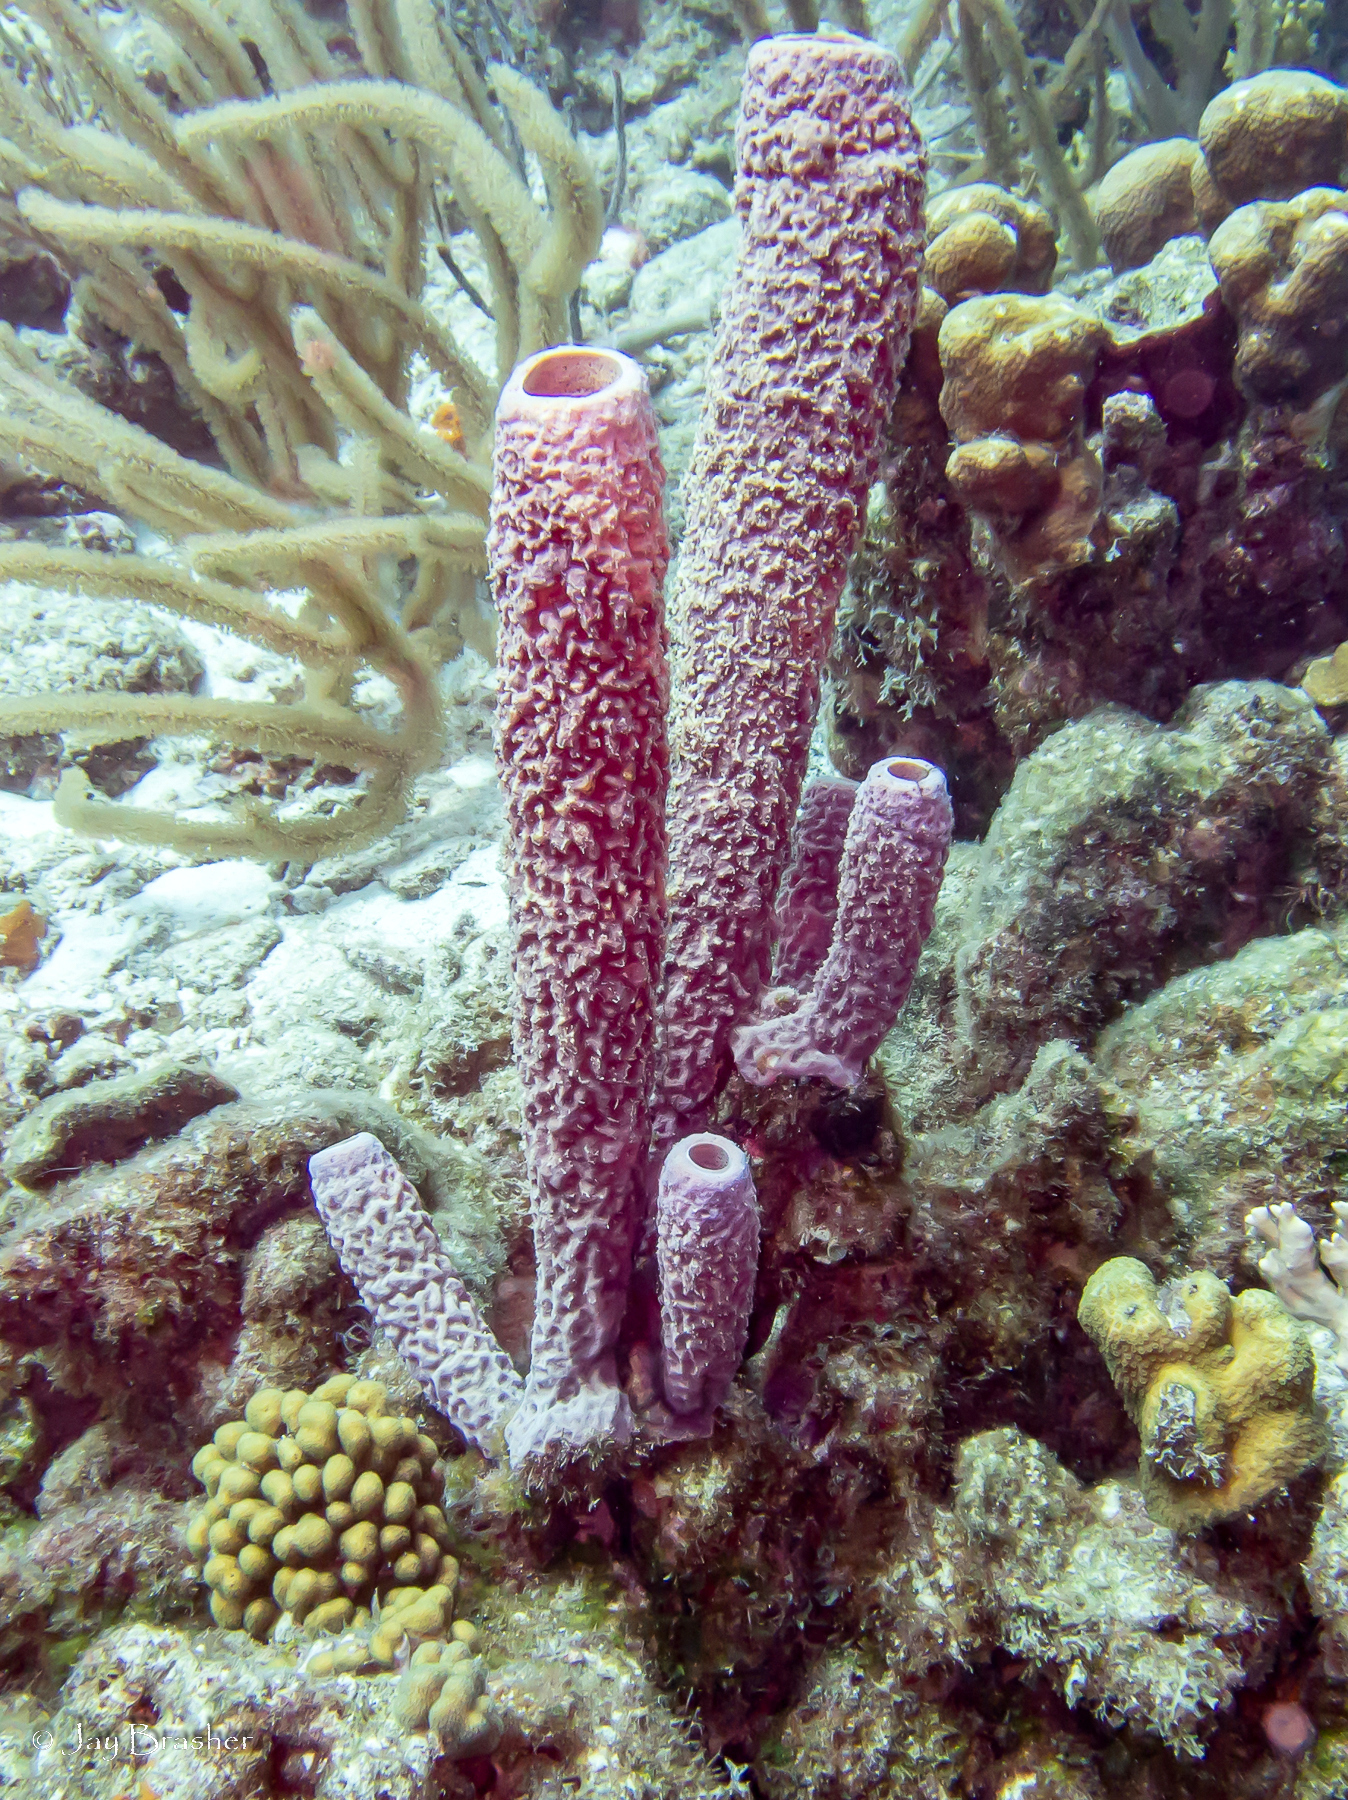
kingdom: Animalia
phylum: Porifera
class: Demospongiae
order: Verongiida
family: Aplysinidae
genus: Aplysina
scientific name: Aplysina archeri
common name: Stove-pipe sponge
